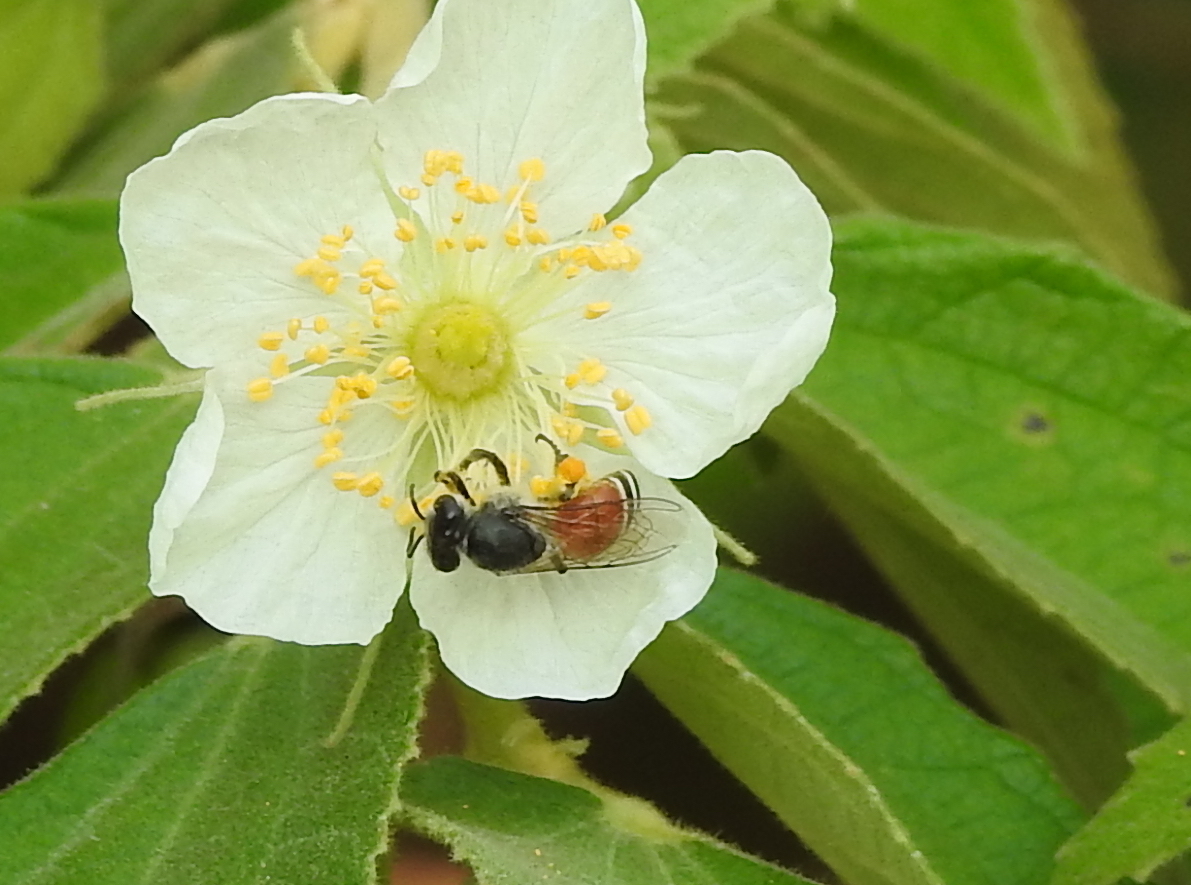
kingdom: Animalia
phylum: Arthropoda
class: Insecta
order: Hymenoptera
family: Apidae
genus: Apis
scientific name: Apis florea
